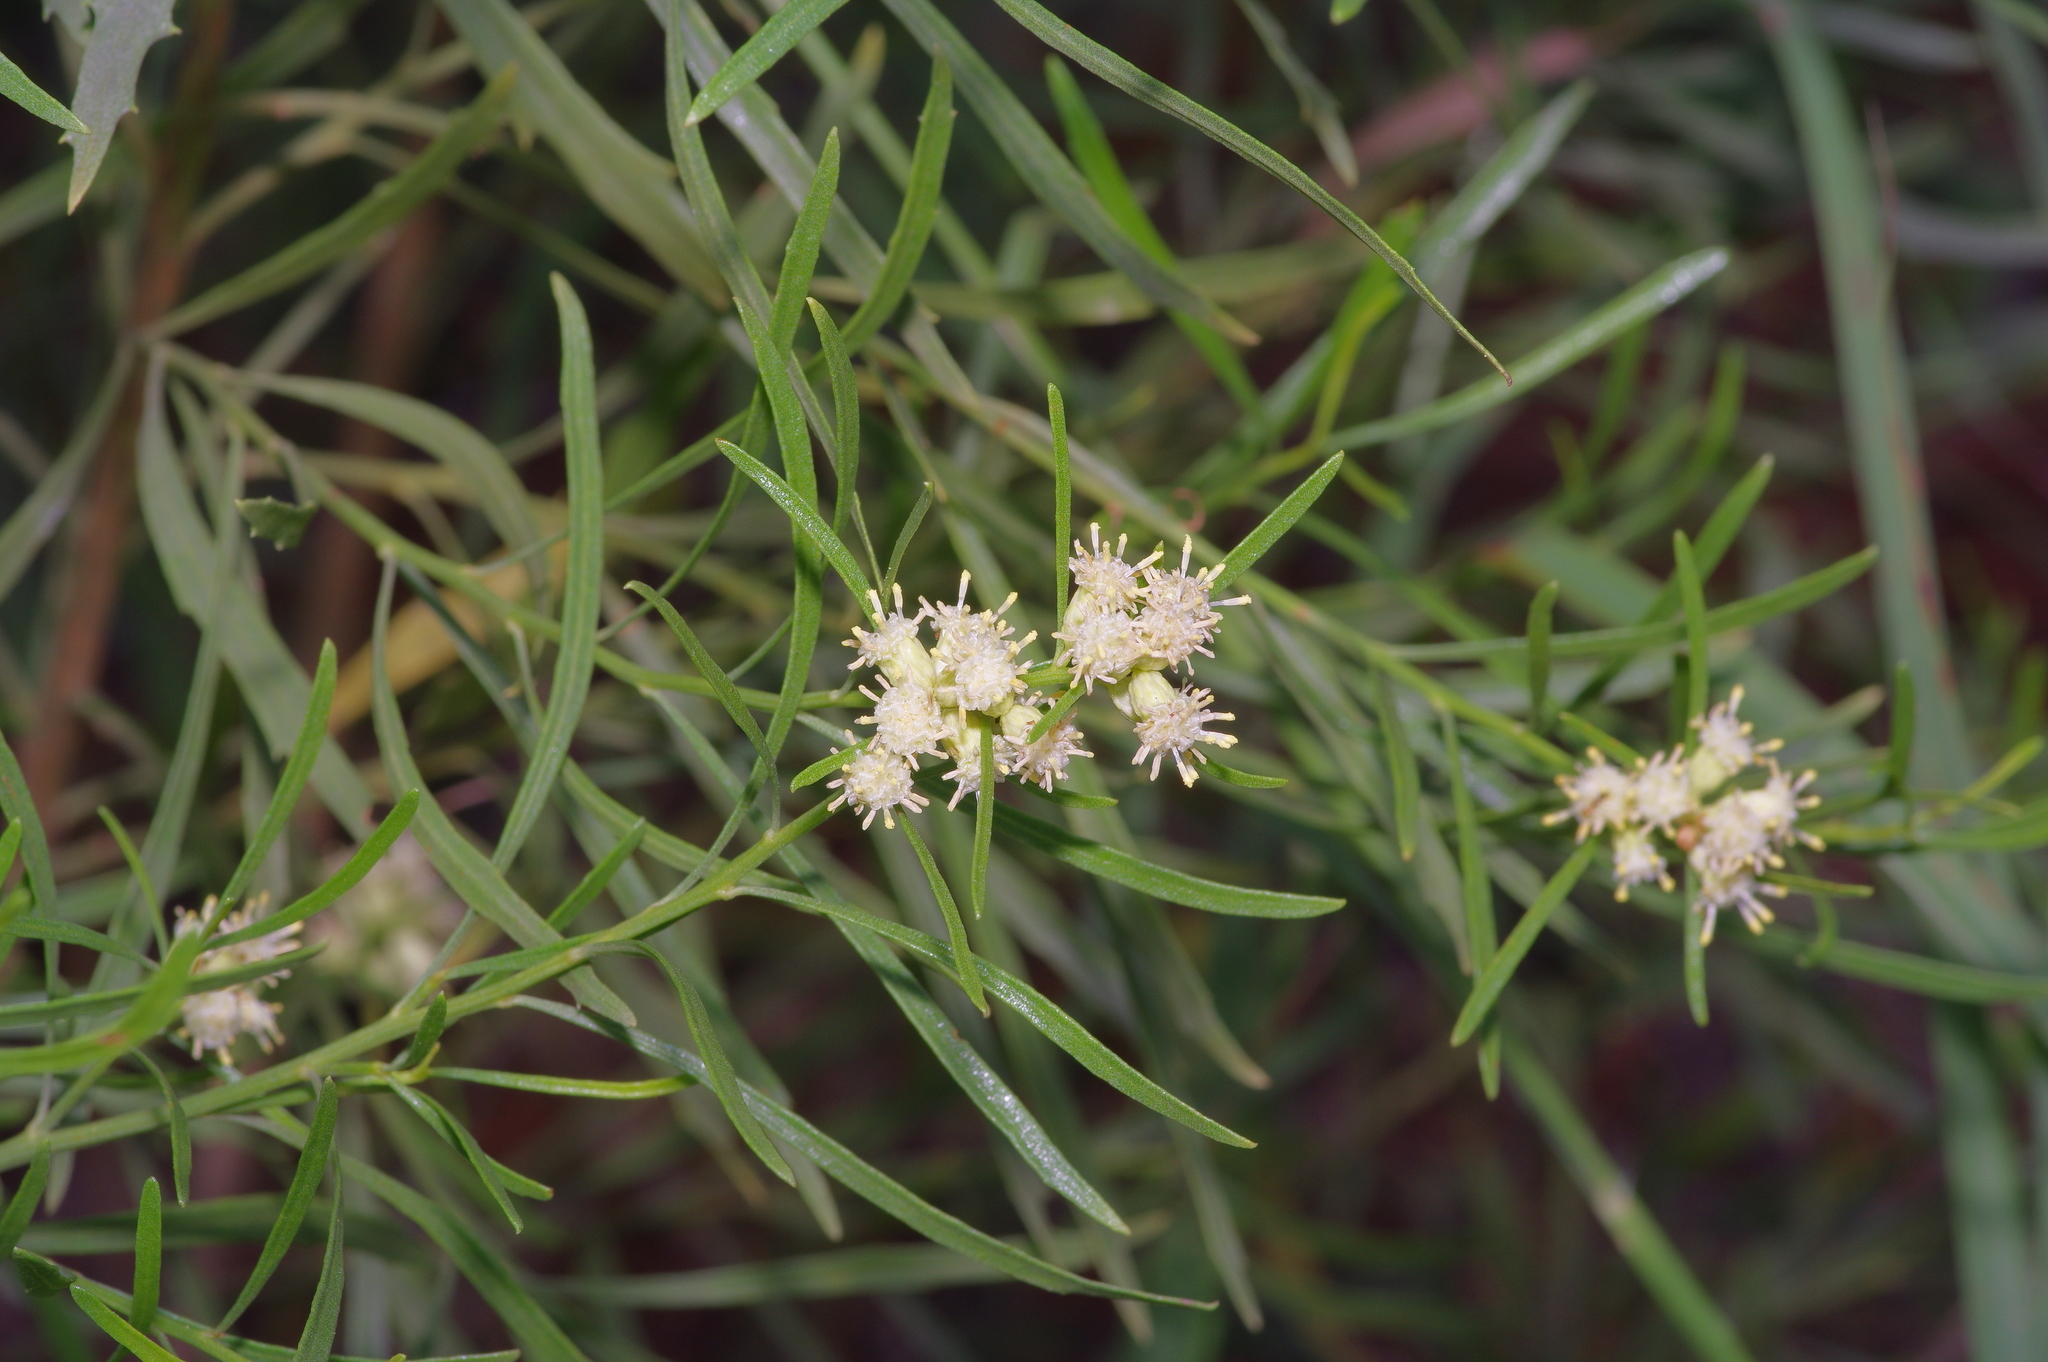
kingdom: Plantae
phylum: Tracheophyta
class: Magnoliopsida
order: Asterales
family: Asteraceae
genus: Baccharis
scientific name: Baccharis neglecta
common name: Roosevelt-weed
